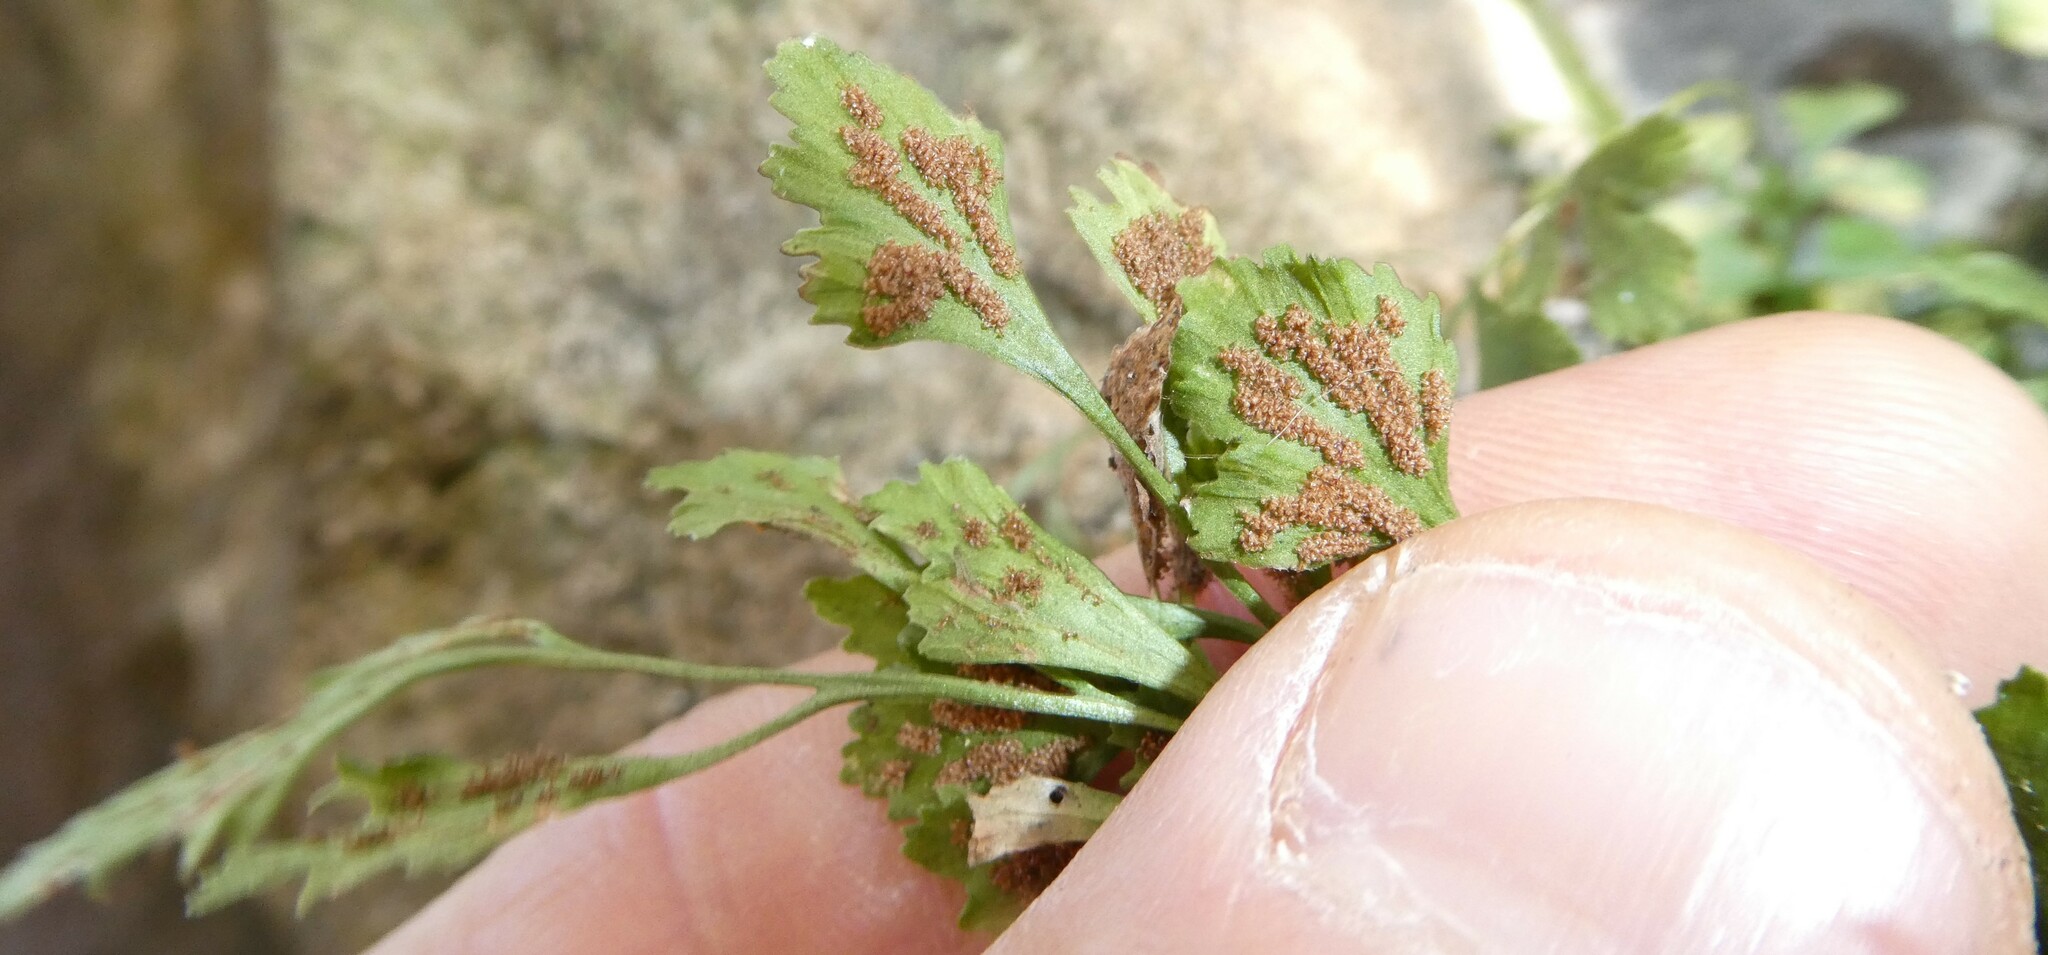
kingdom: Plantae
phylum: Tracheophyta
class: Polypodiopsida
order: Polypodiales
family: Aspleniaceae
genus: Asplenium
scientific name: Asplenium ruta-muraria
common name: Wall-rue
